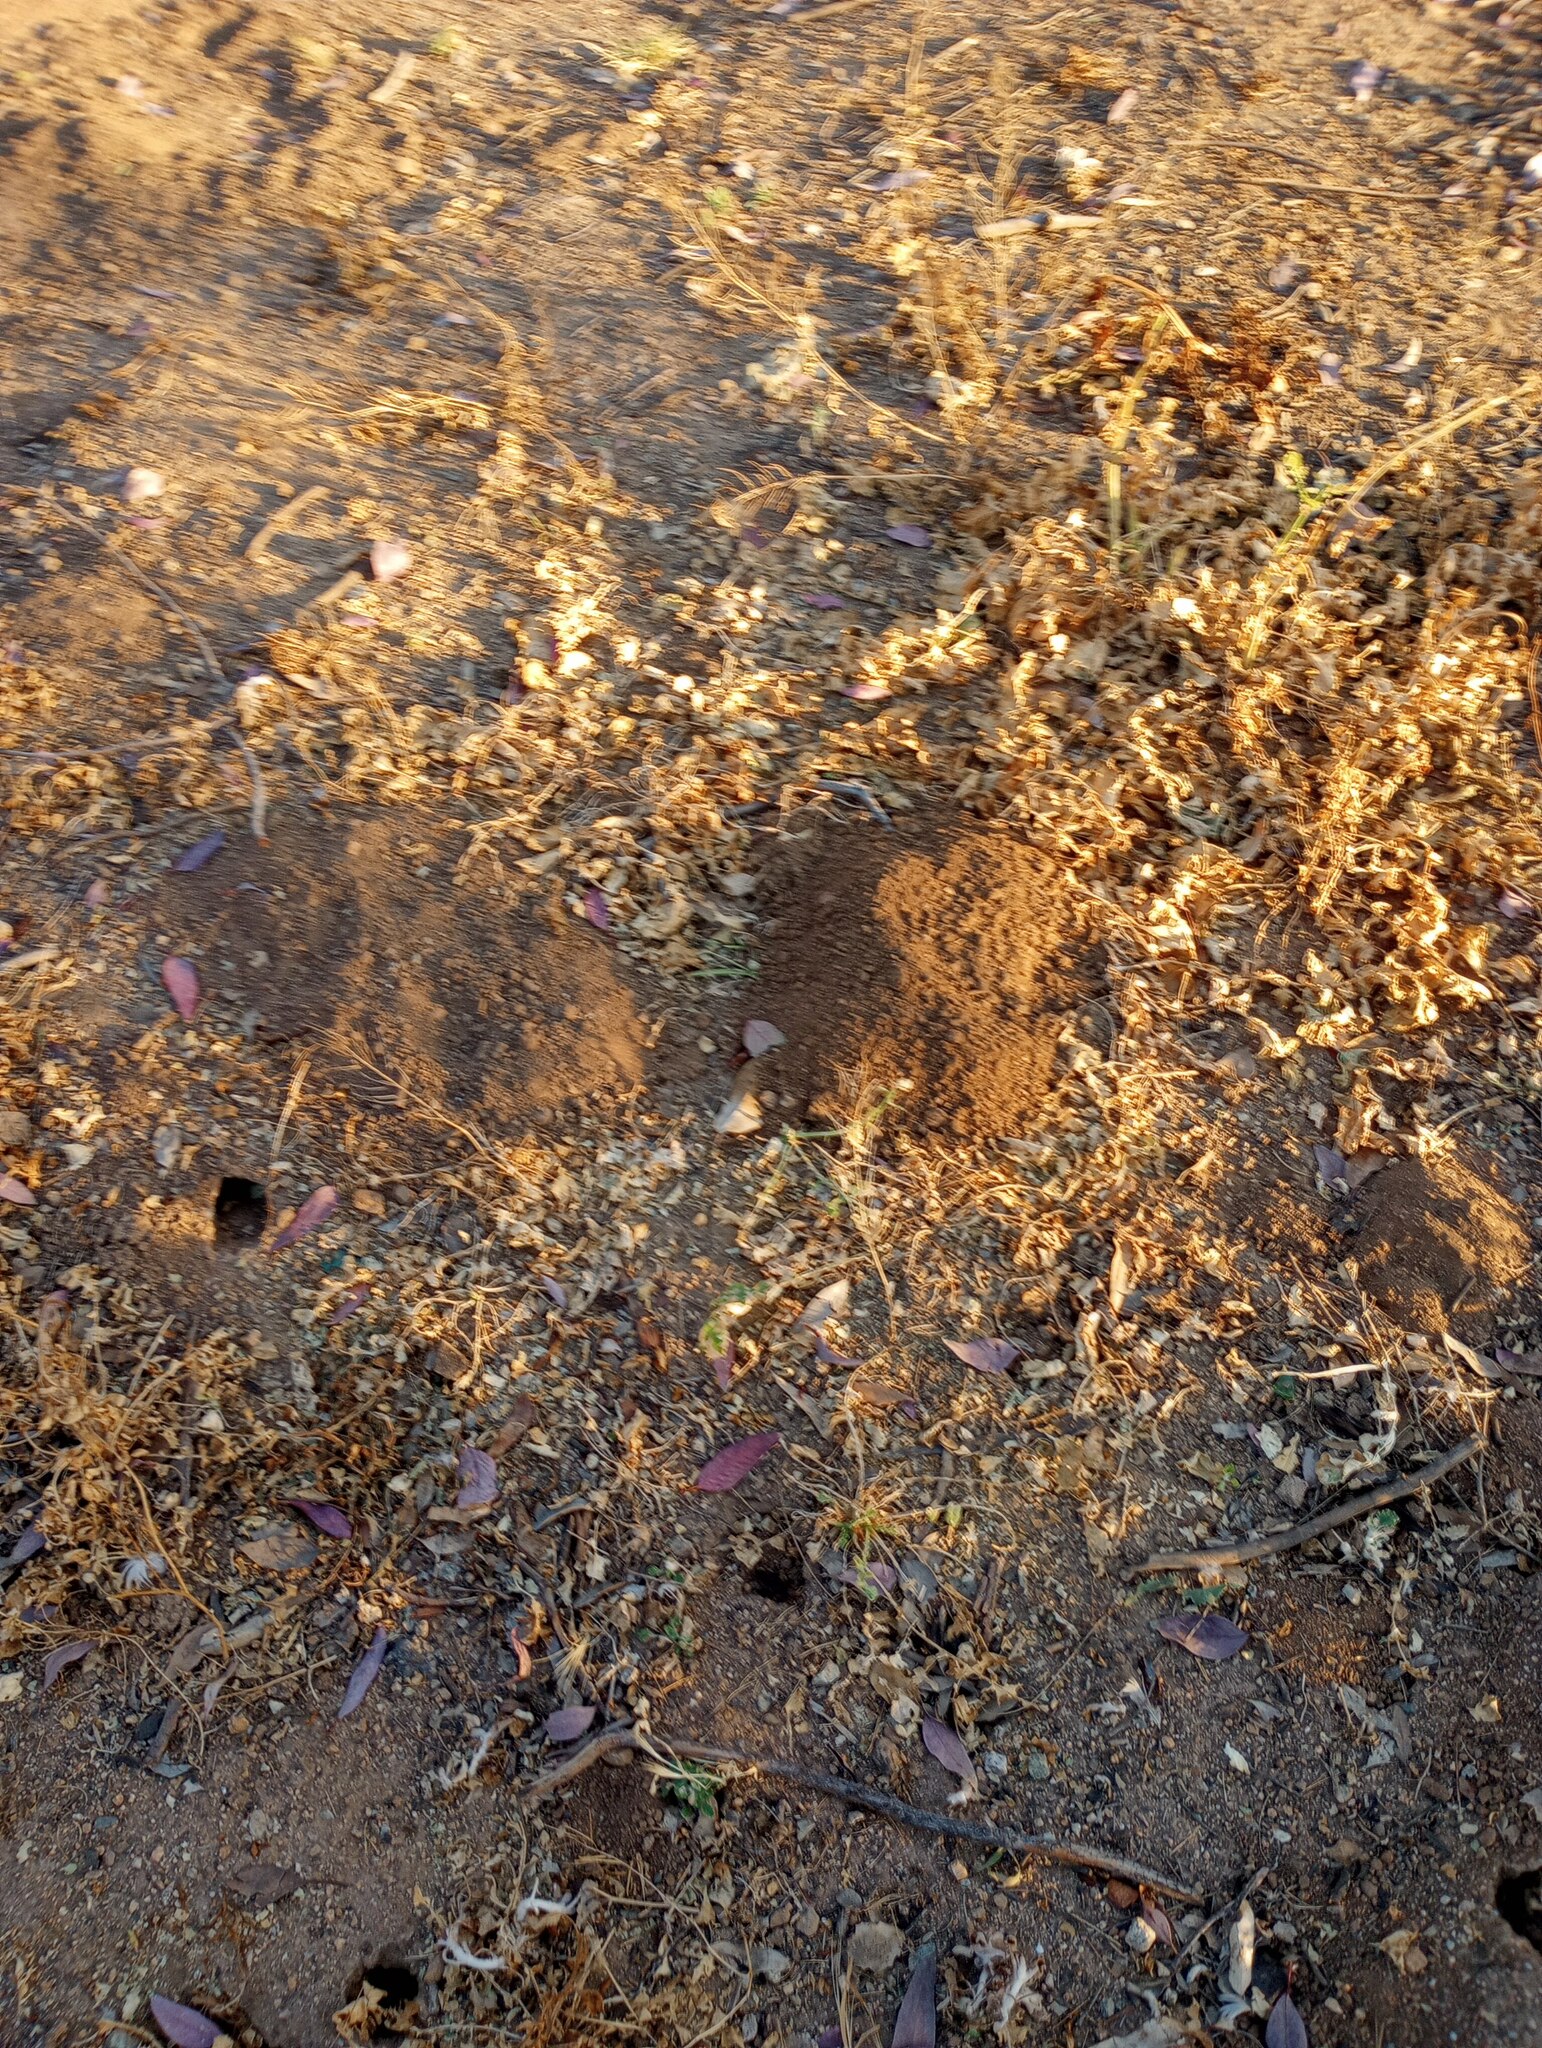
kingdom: Animalia
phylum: Chordata
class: Mammalia
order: Rodentia
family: Geomyidae
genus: Thomomys
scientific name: Thomomys bottae
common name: Botta's pocket gopher
